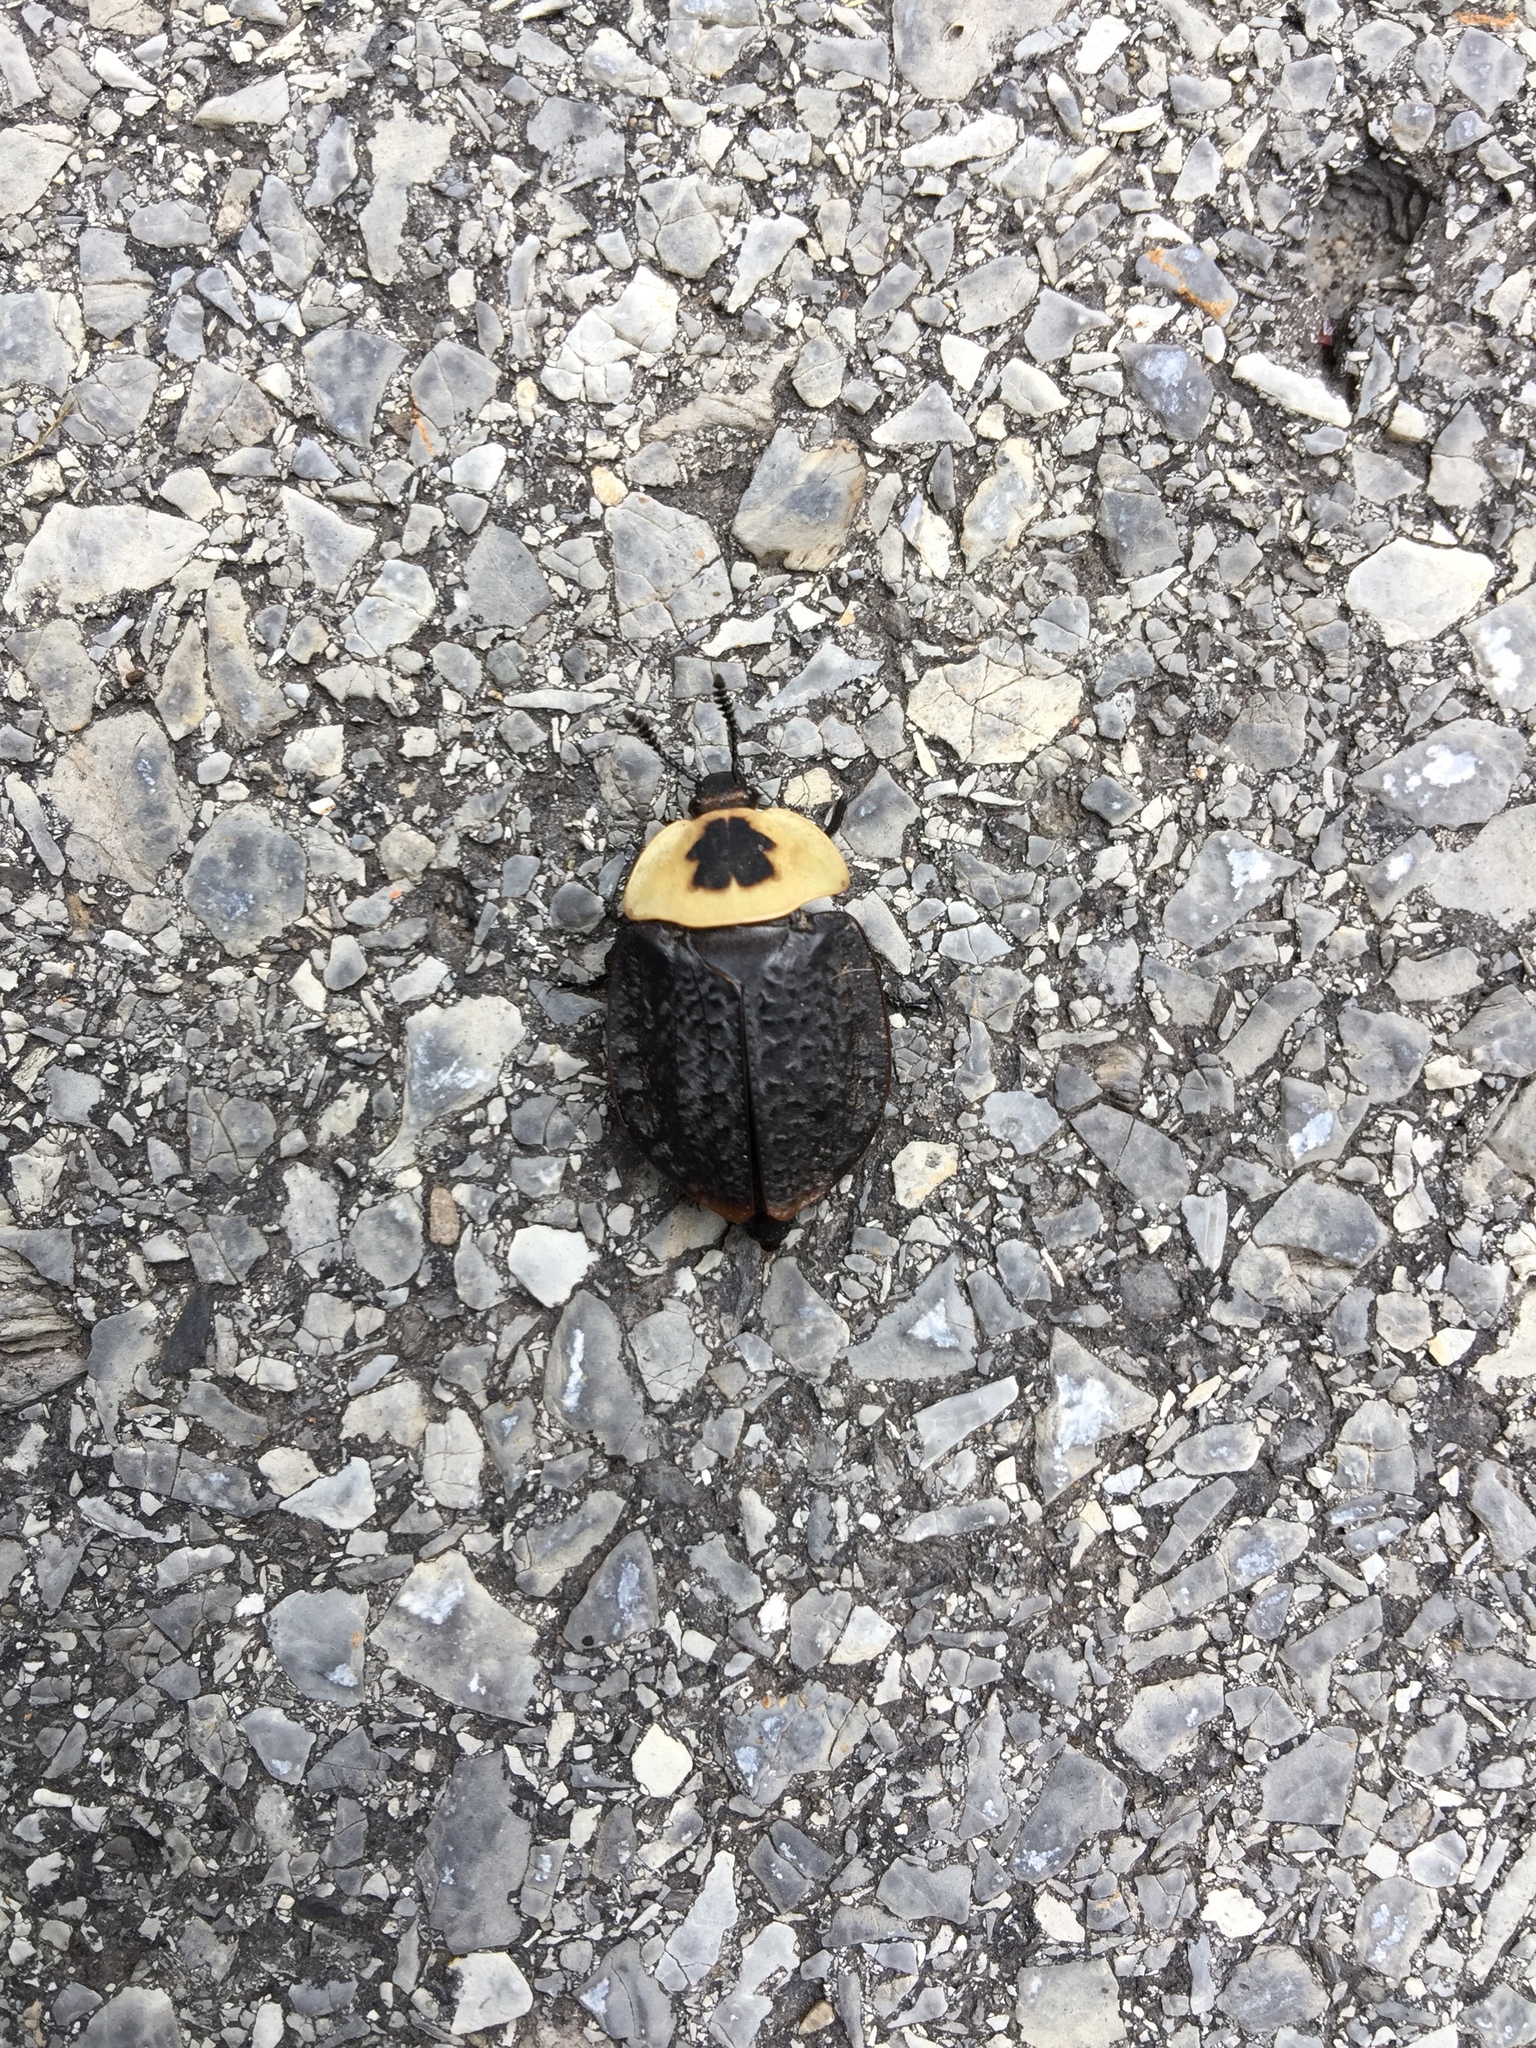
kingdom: Animalia
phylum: Arthropoda
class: Insecta
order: Coleoptera
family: Staphylinidae
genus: Necrophila
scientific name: Necrophila americana
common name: American carrion beetle
